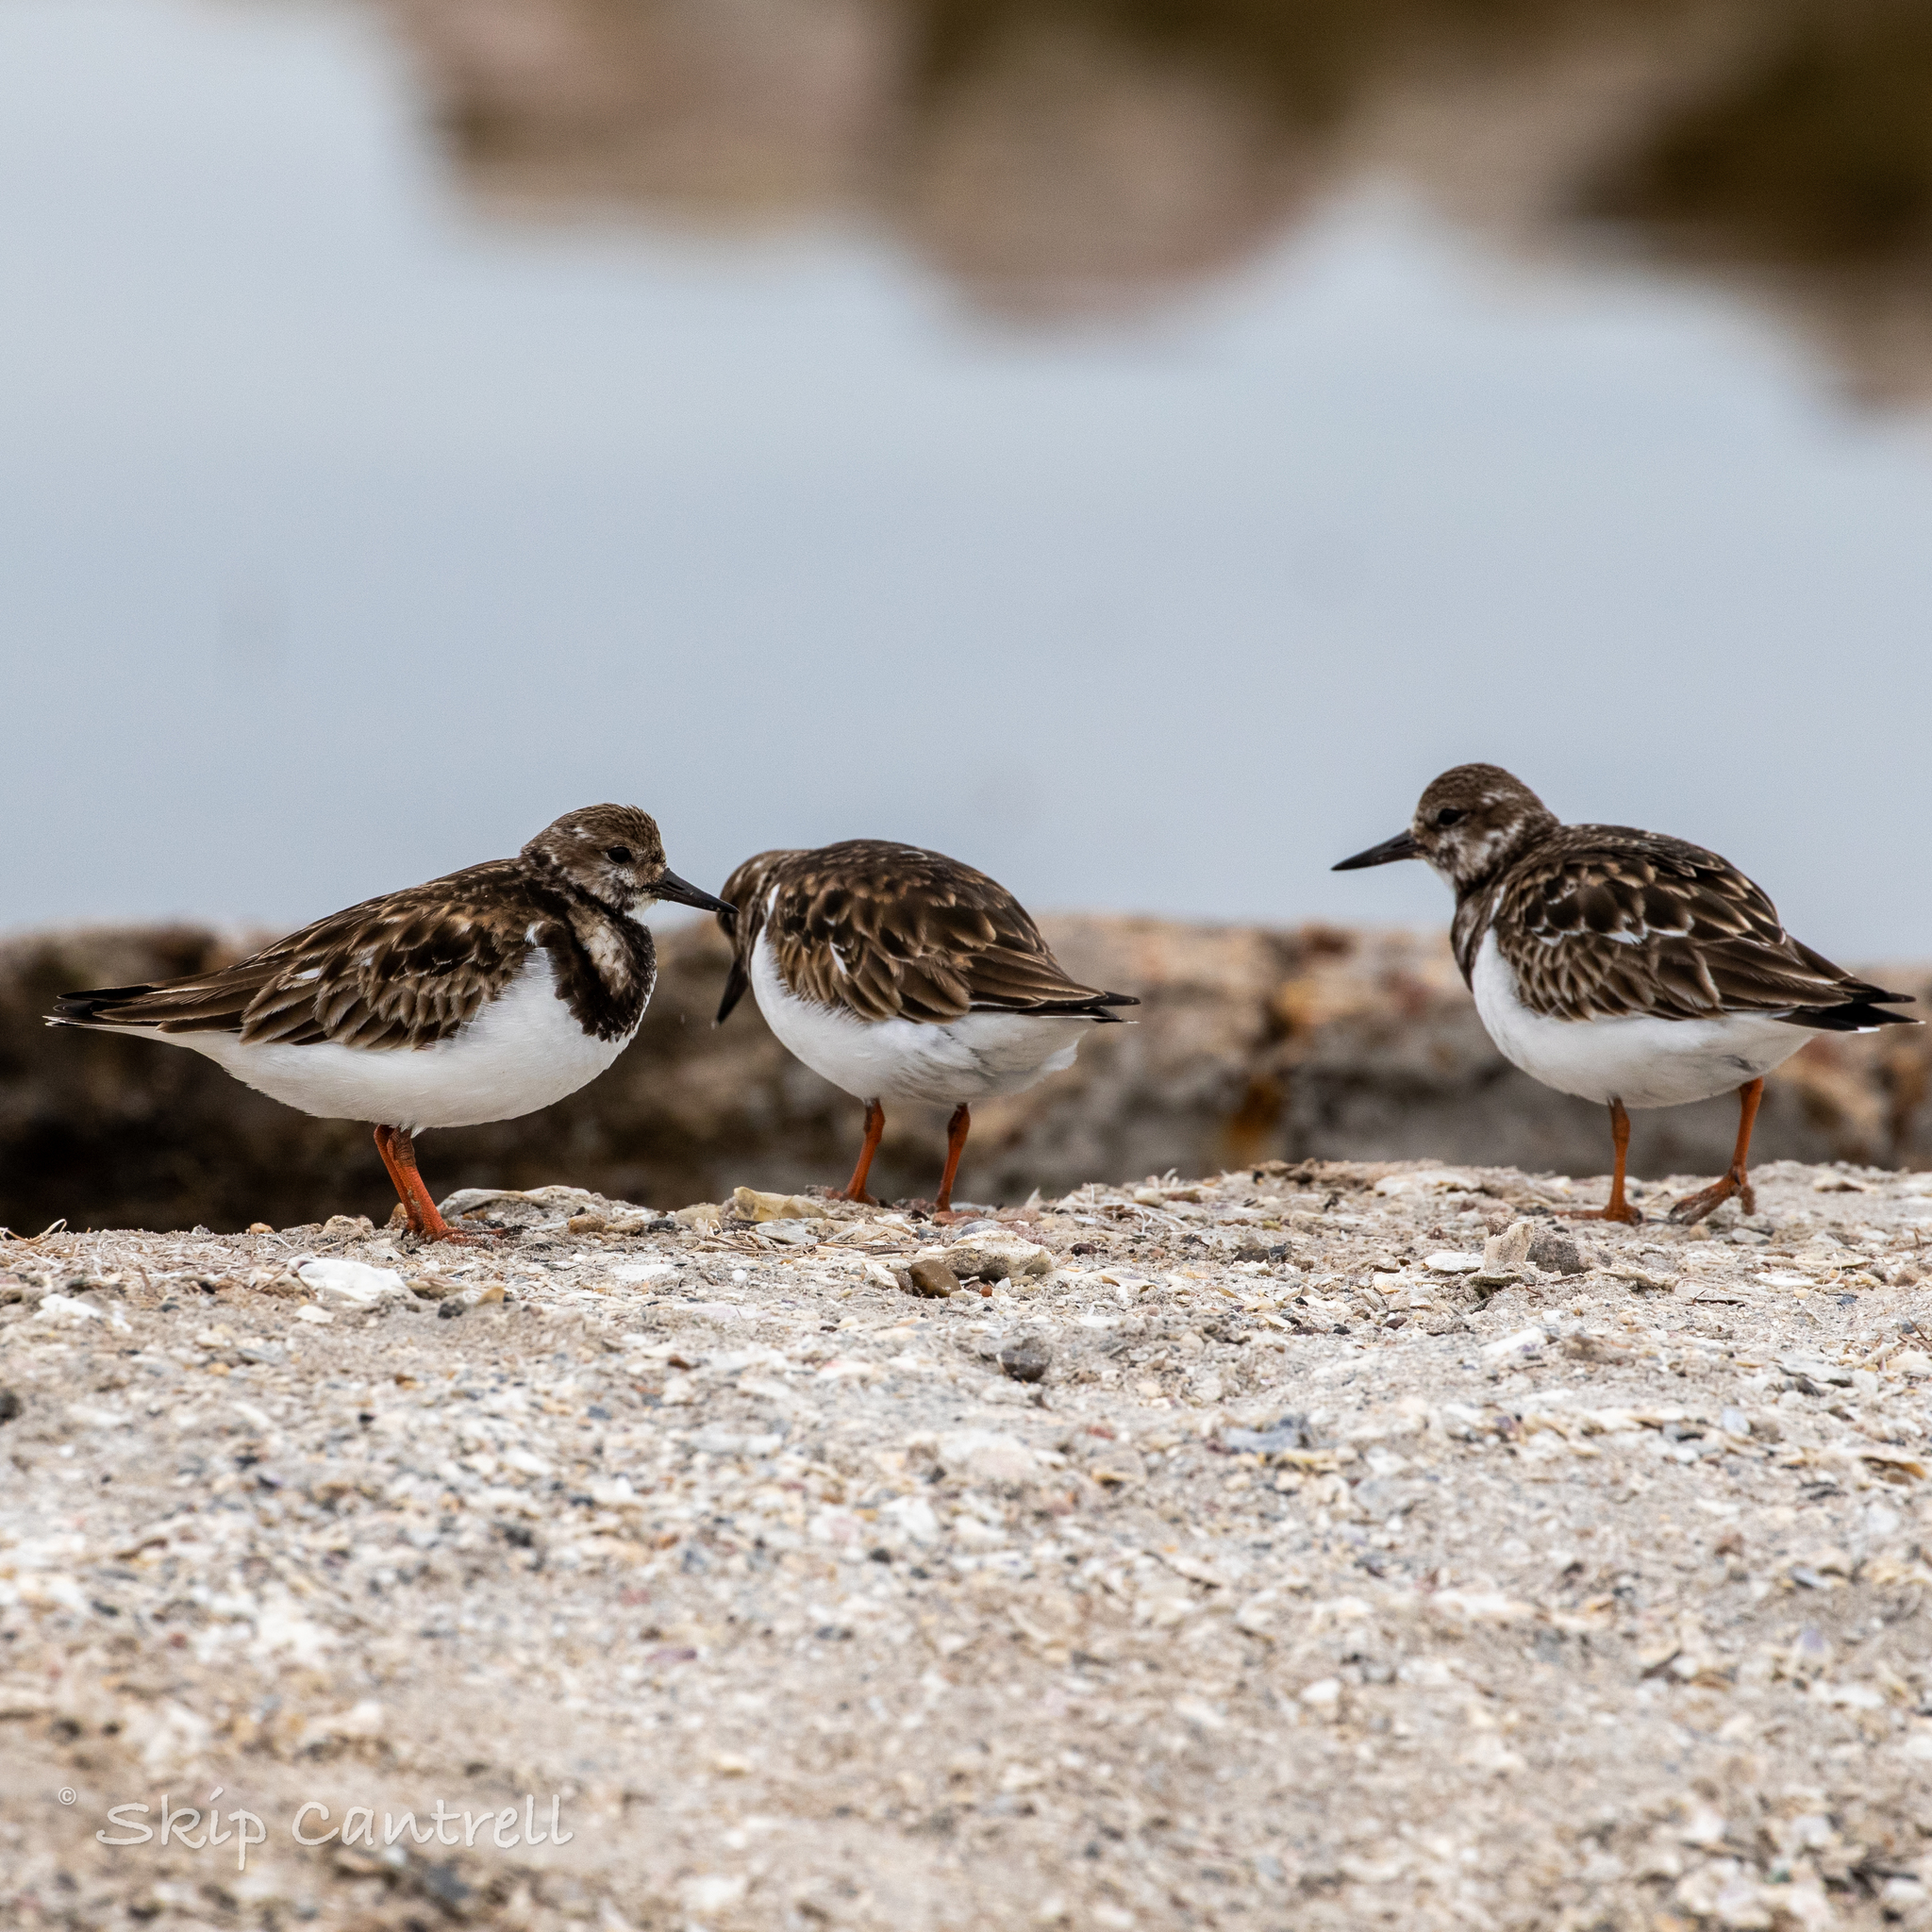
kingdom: Animalia
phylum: Chordata
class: Aves
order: Charadriiformes
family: Scolopacidae
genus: Arenaria
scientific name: Arenaria interpres
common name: Ruddy turnstone
